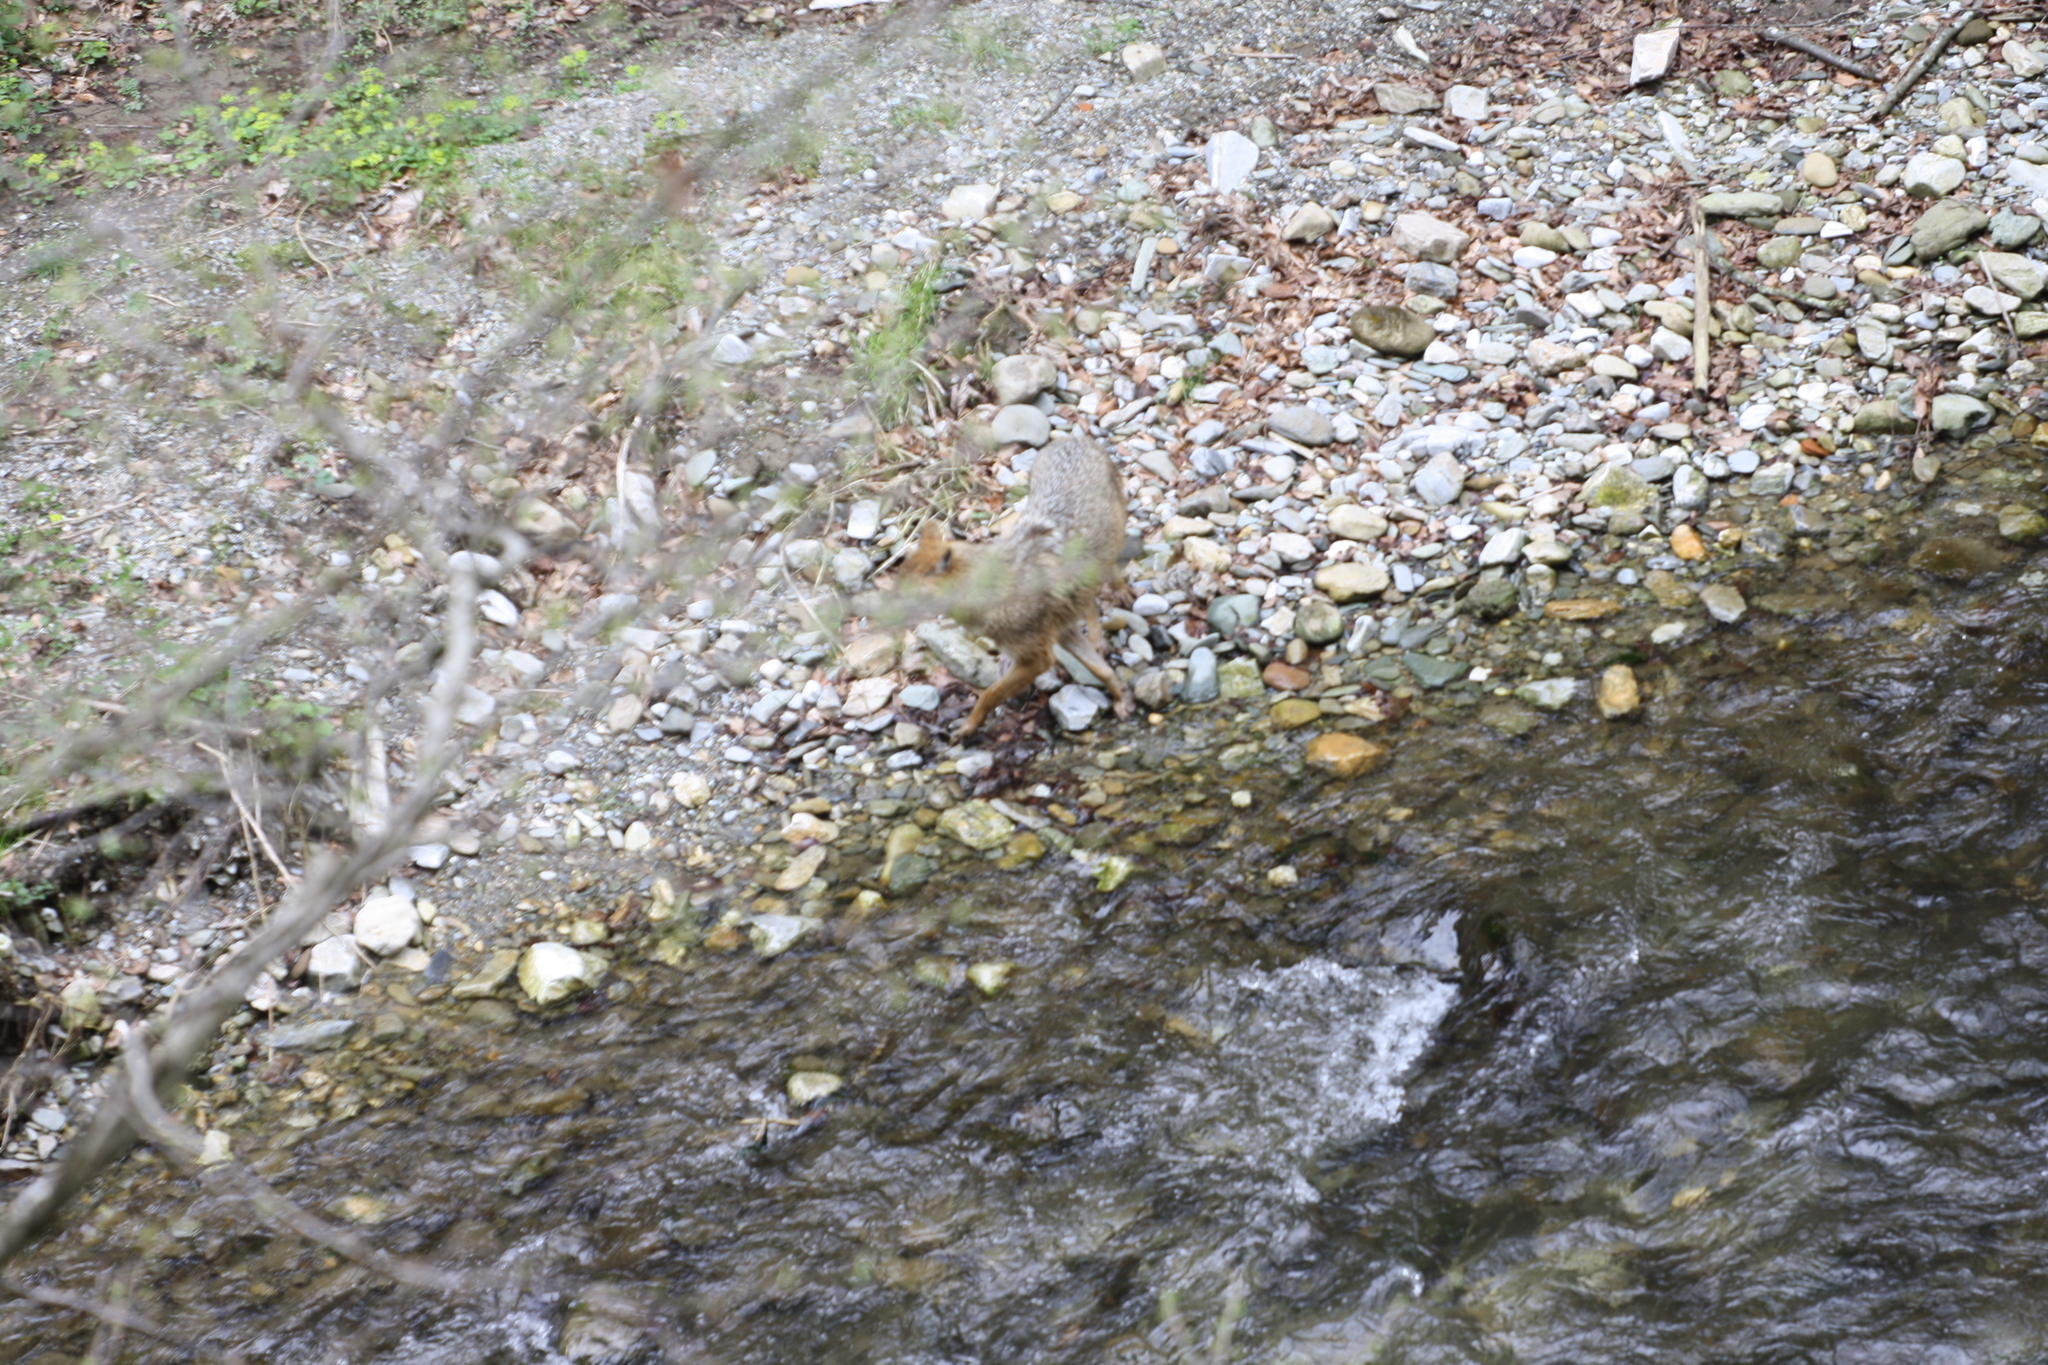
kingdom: Animalia
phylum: Chordata
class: Mammalia
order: Carnivora
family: Canidae
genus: Canis
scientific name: Canis aureus
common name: Golden jackal
